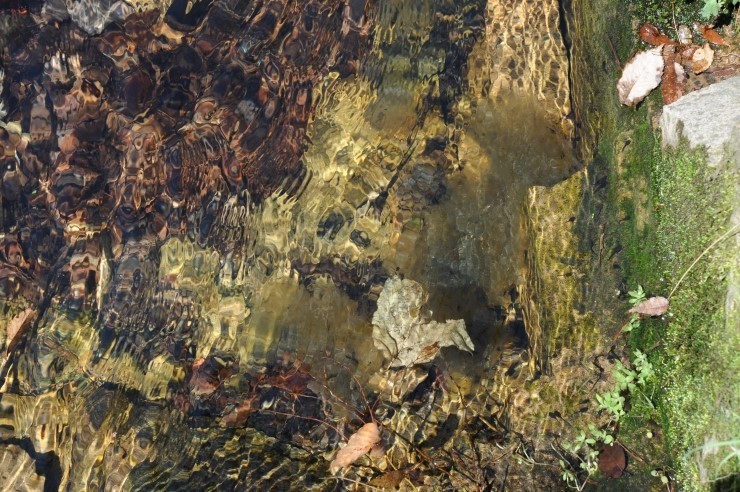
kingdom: Animalia
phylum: Chordata
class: Amphibia
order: Anura
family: Ranidae
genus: Rana
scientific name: Rana huanrenensis
